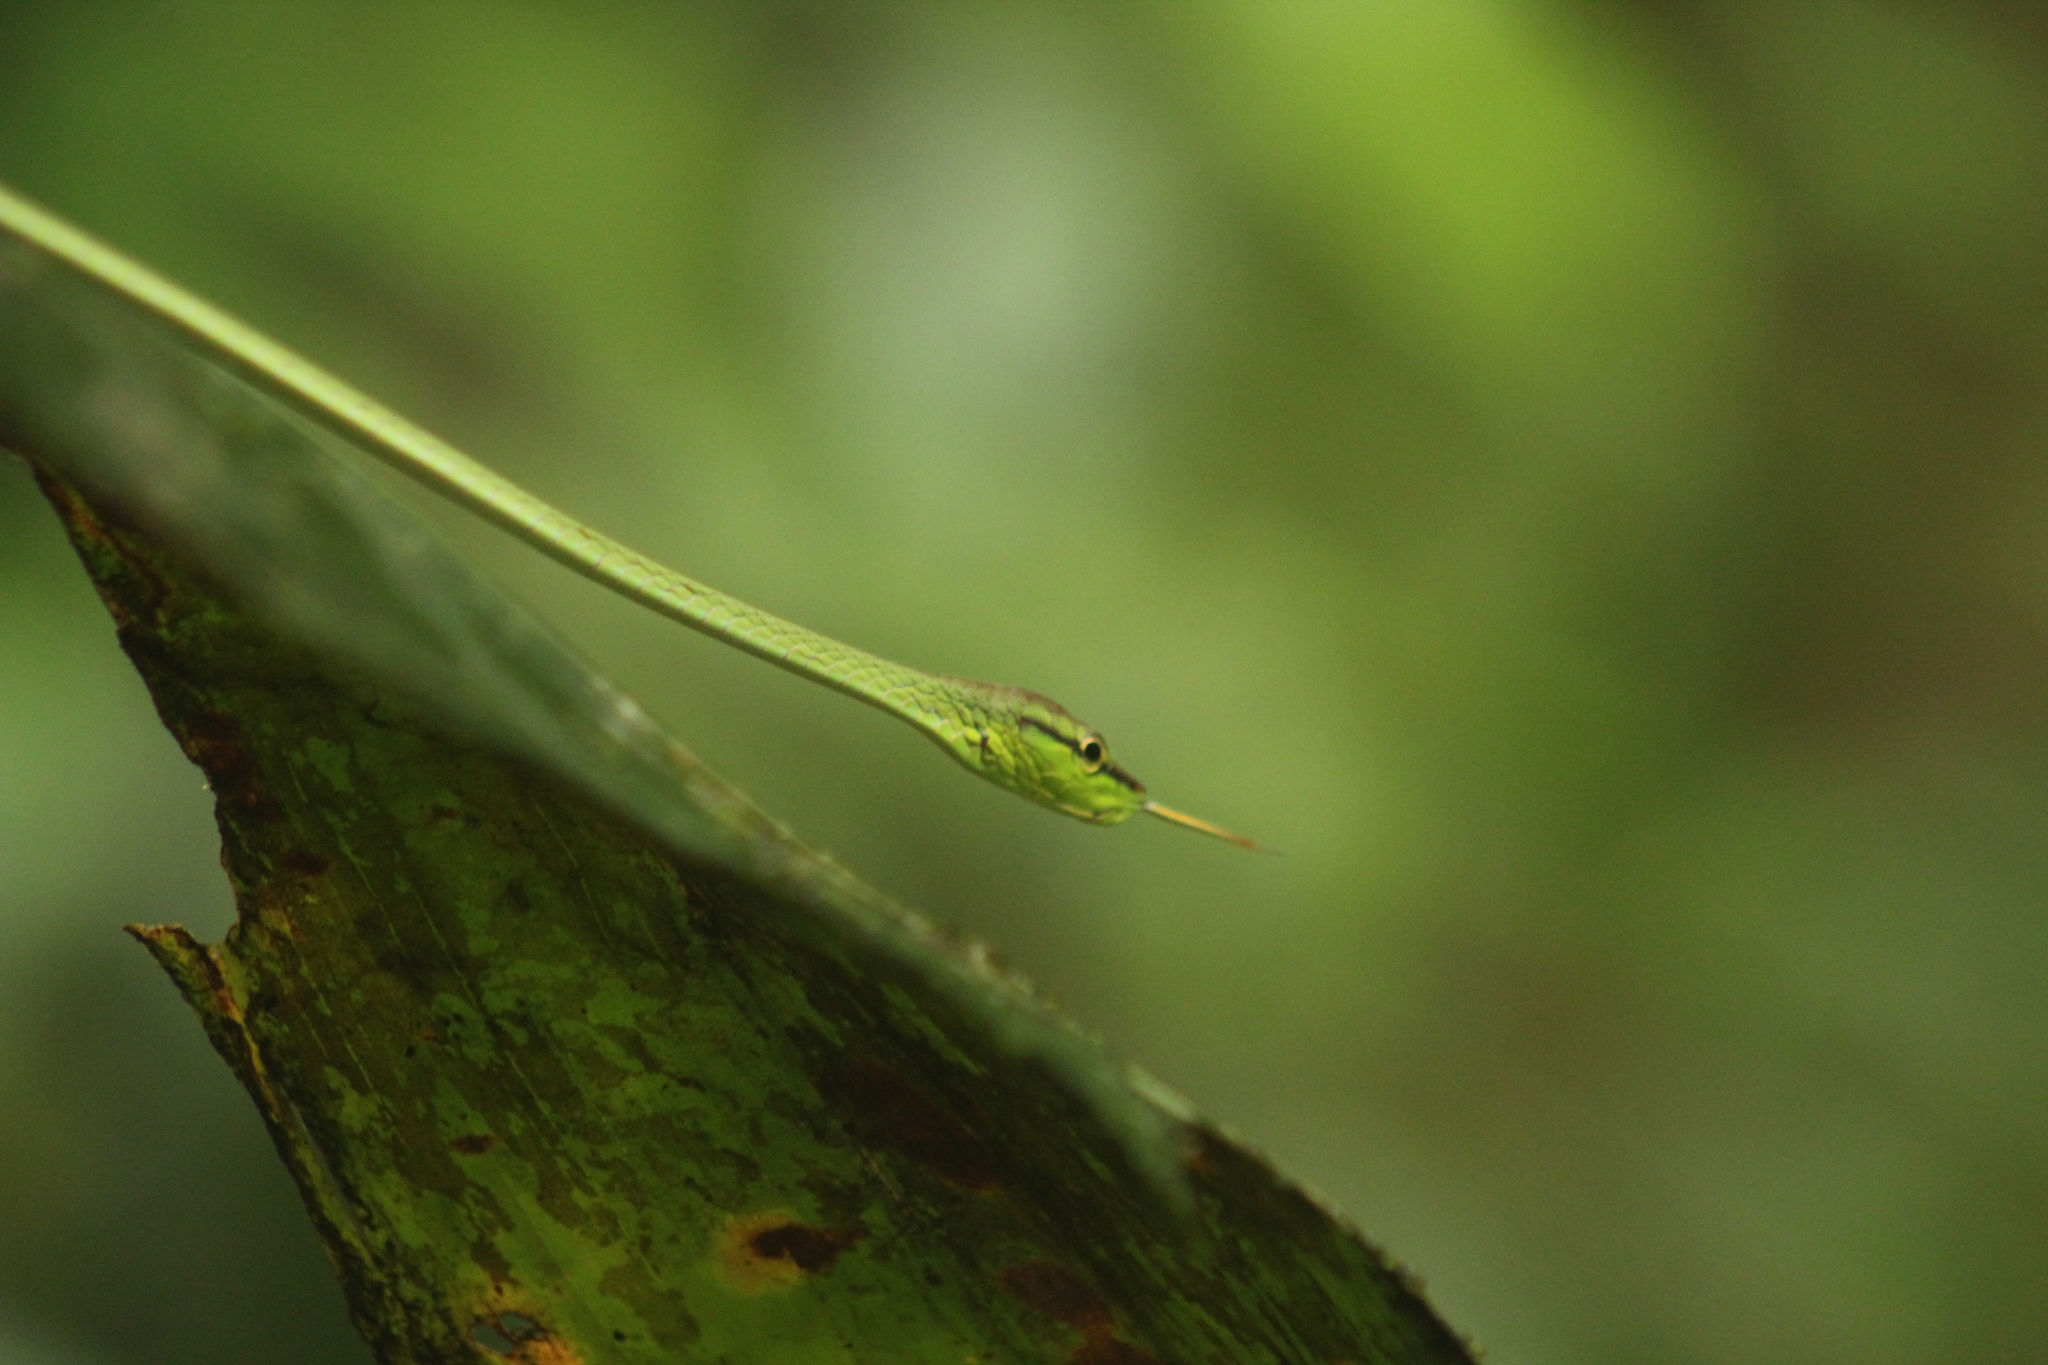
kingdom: Animalia
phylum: Chordata
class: Squamata
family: Colubridae
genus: Oxybelis
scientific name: Oxybelis brevirostris
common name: Cope's vine snake
